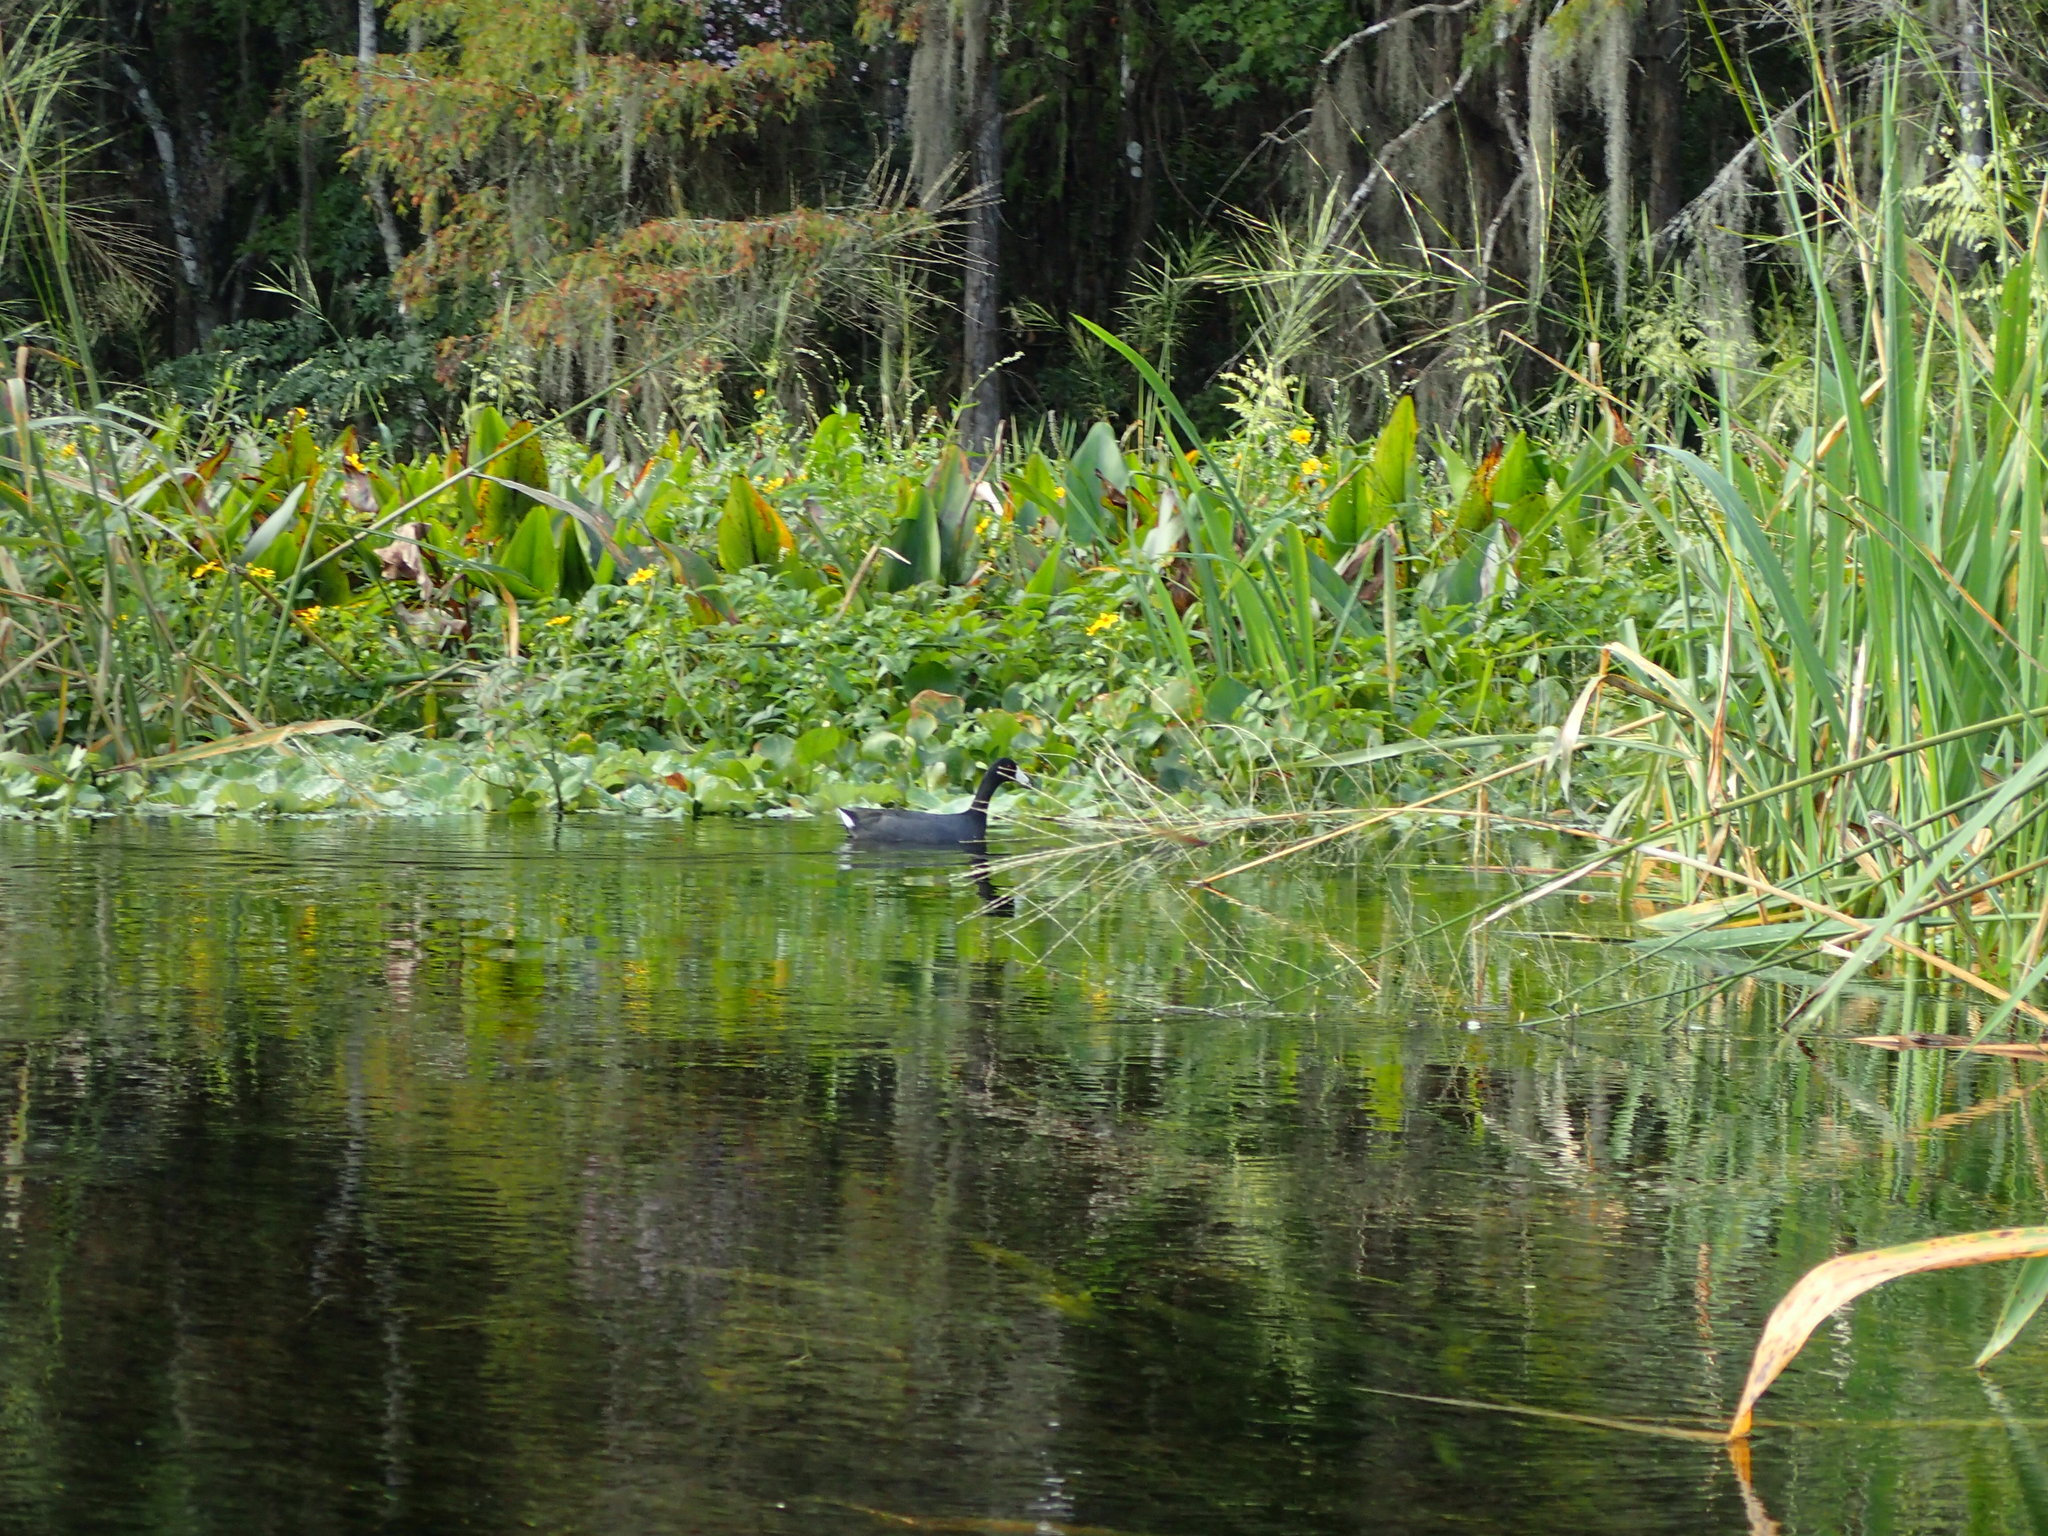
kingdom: Animalia
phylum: Chordata
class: Aves
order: Gruiformes
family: Rallidae
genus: Fulica
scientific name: Fulica americana
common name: American coot
